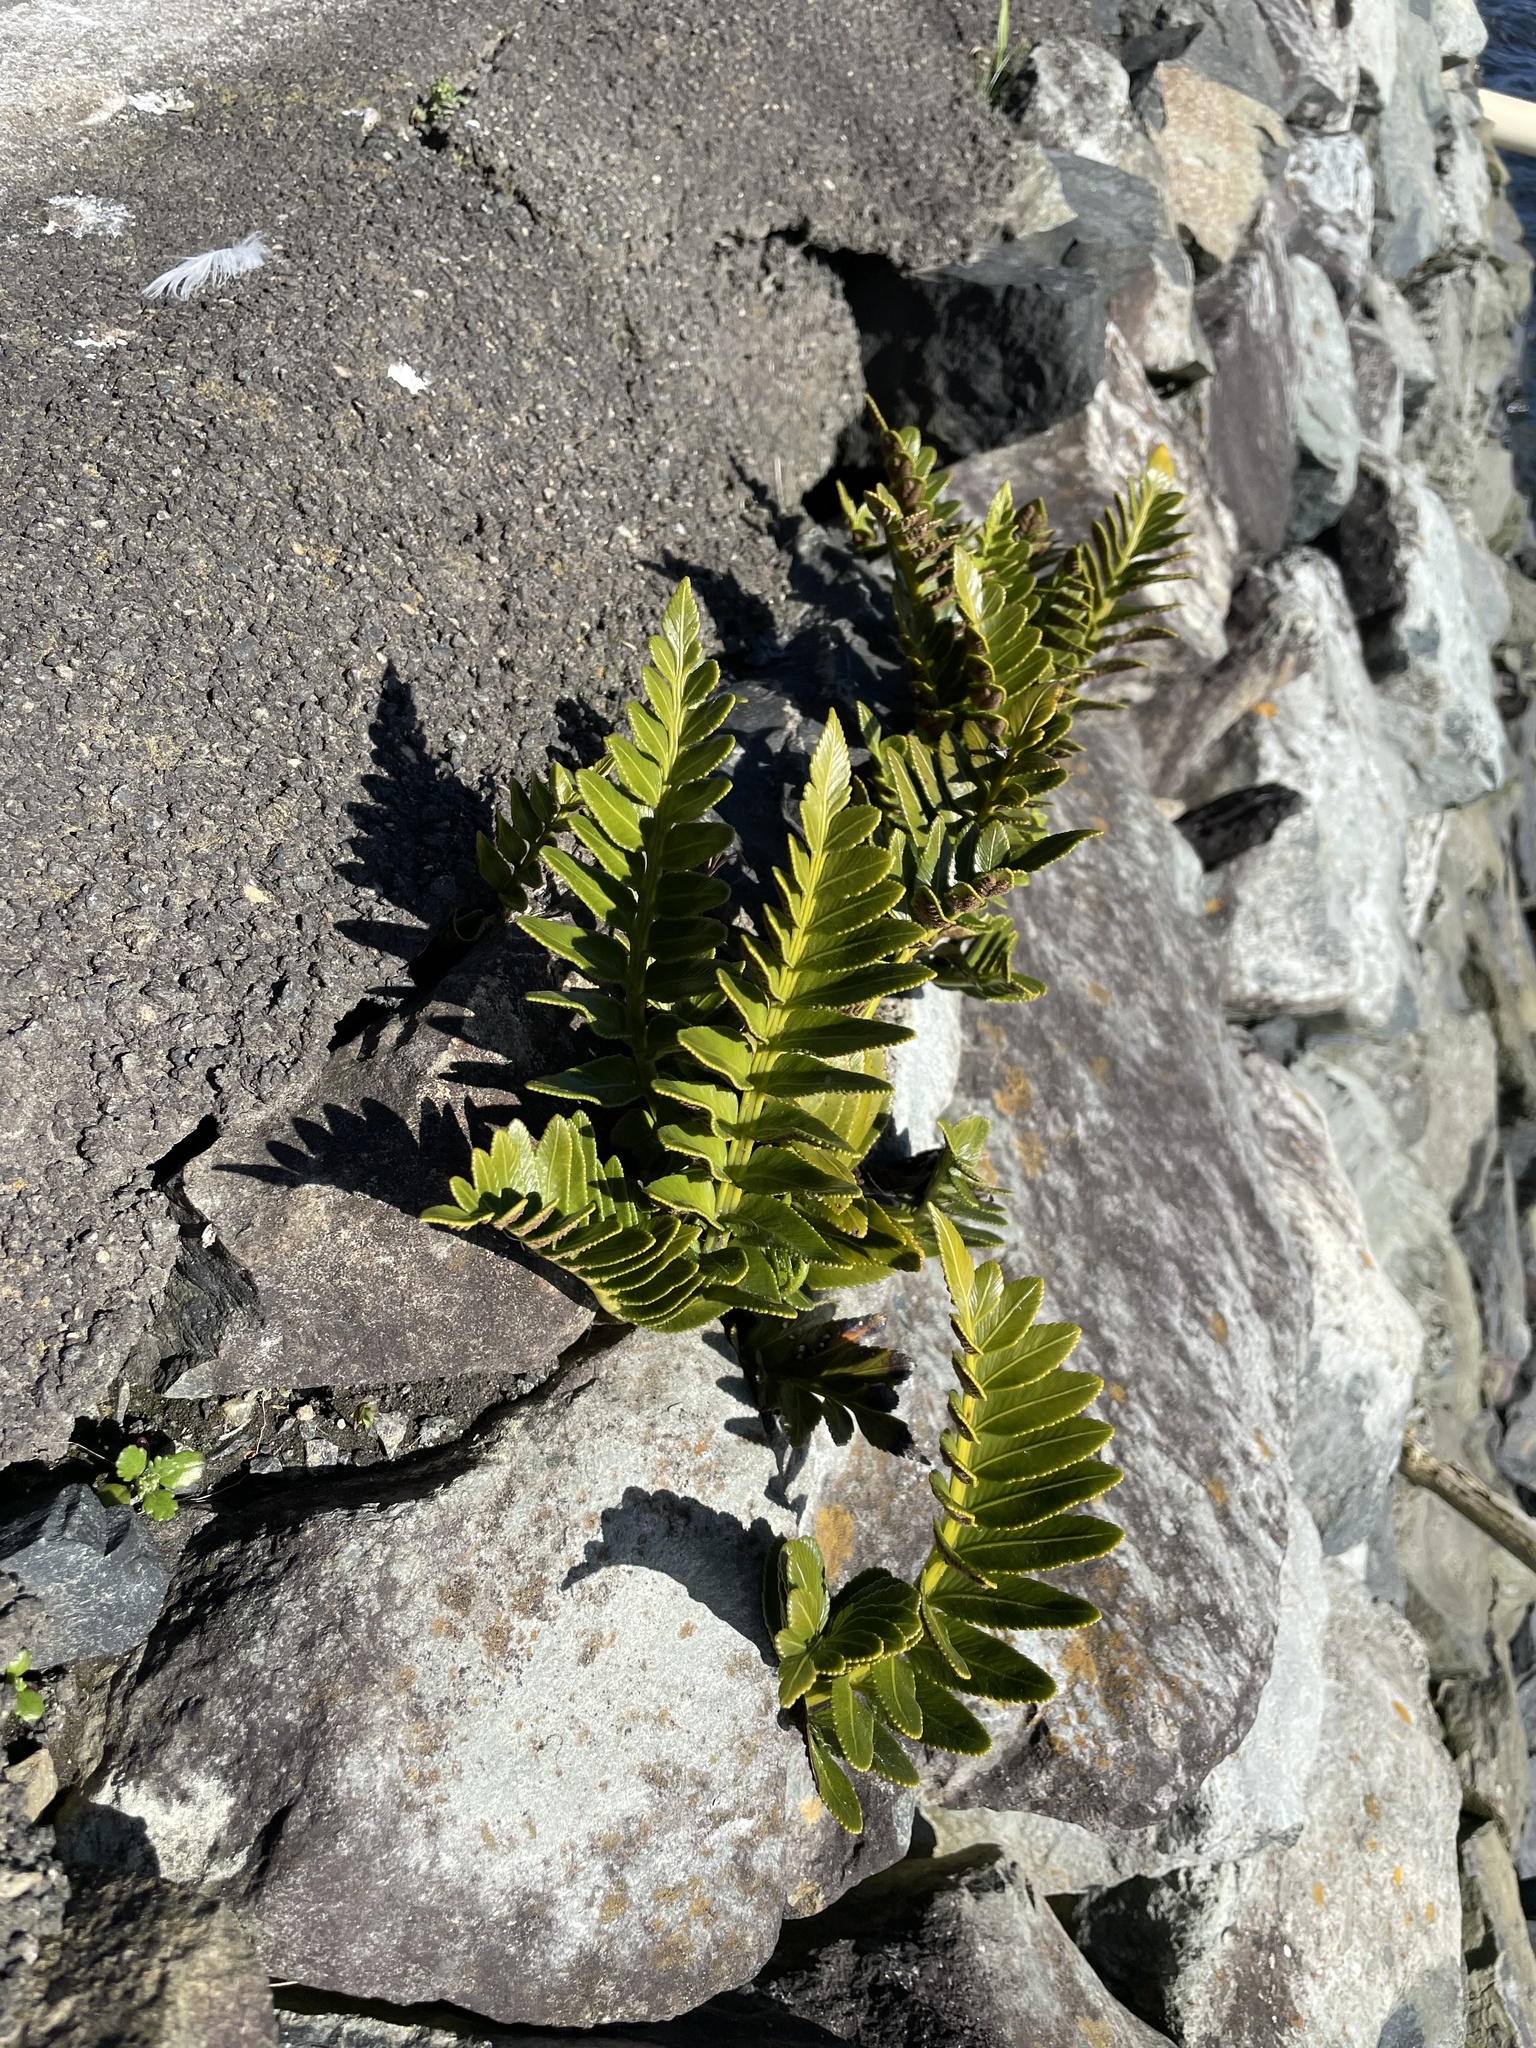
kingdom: Plantae
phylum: Tracheophyta
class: Polypodiopsida
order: Polypodiales
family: Aspleniaceae
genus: Asplenium
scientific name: Asplenium obtusatum
